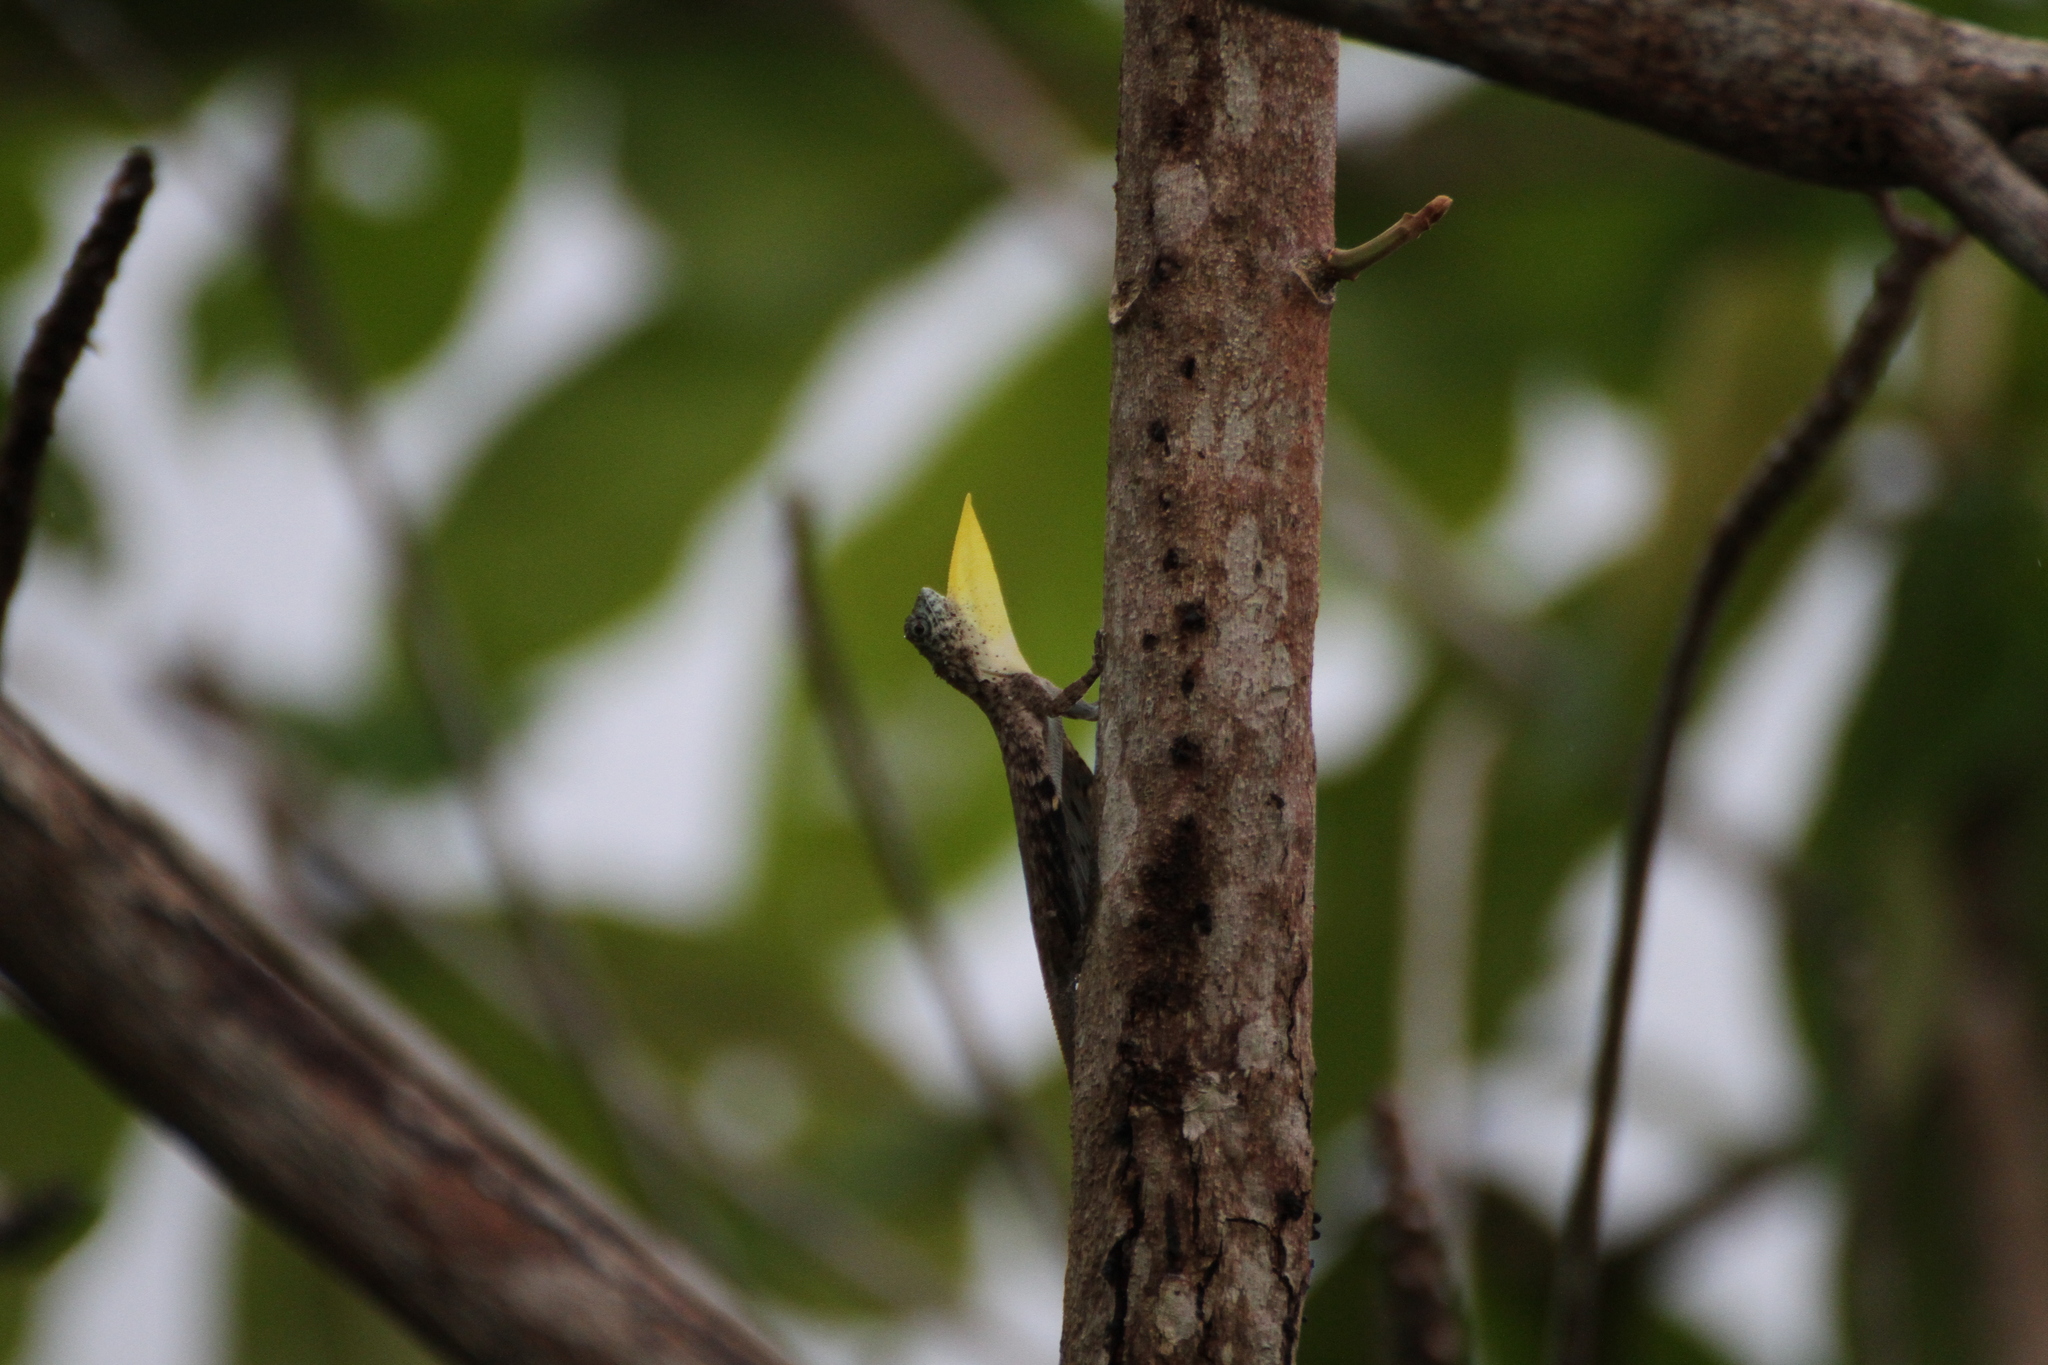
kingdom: Animalia
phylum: Chordata
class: Squamata
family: Agamidae
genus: Draco
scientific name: Draco sumatranus
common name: Common gliding lizard
